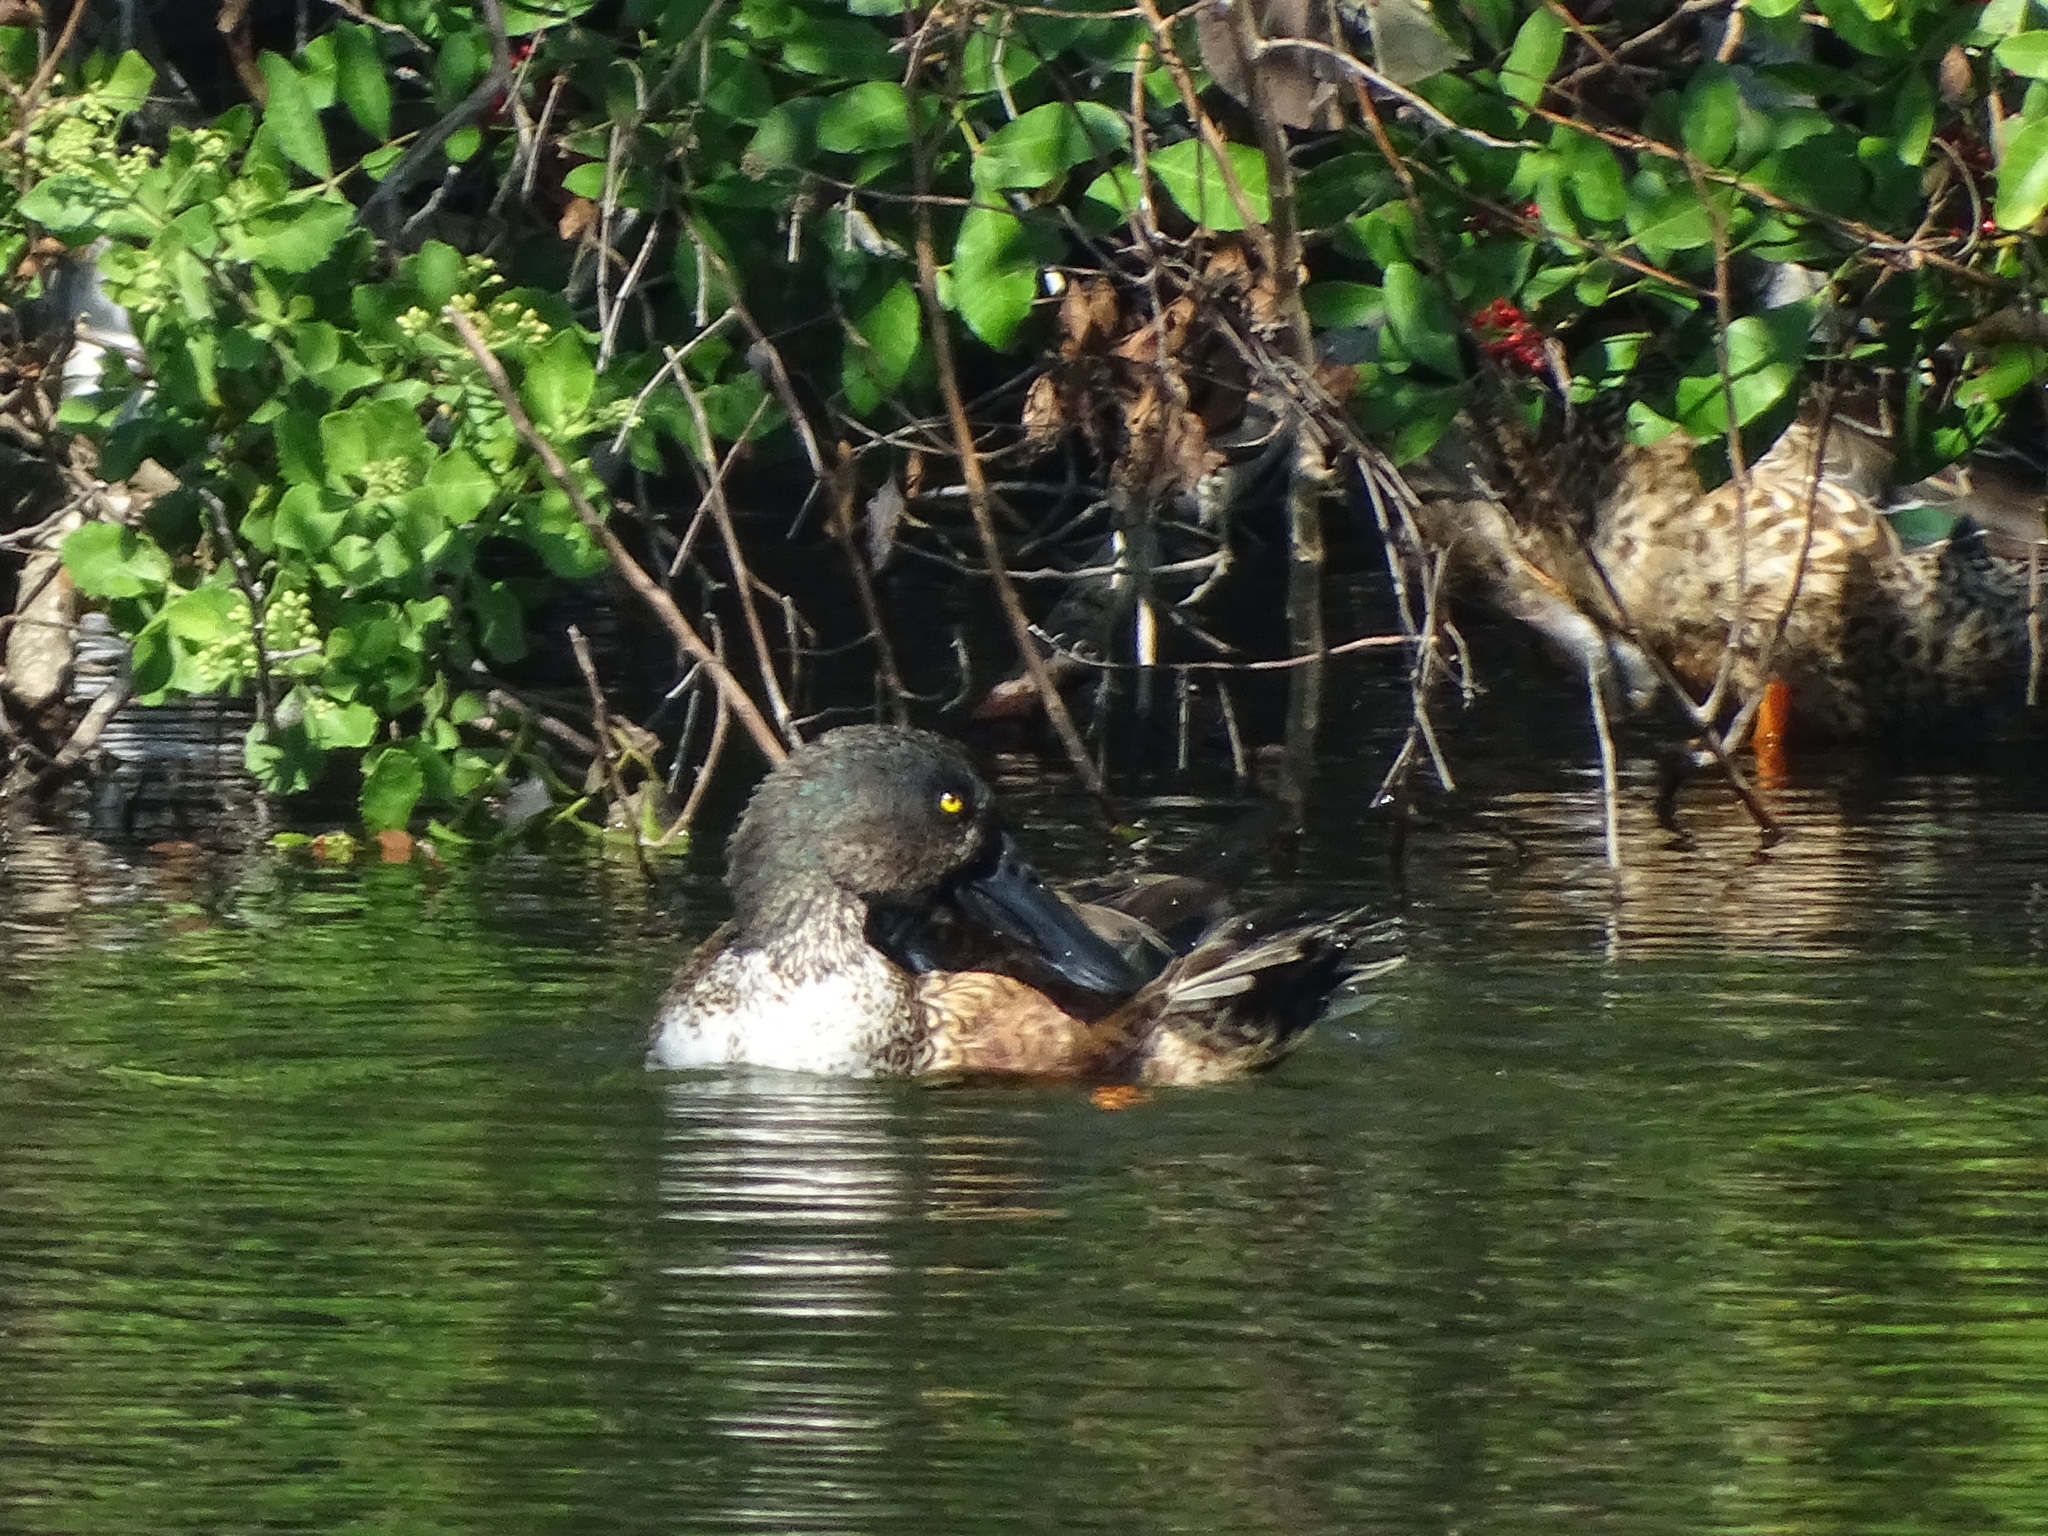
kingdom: Animalia
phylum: Chordata
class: Aves
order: Anseriformes
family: Anatidae
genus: Spatula
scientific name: Spatula clypeata
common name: Northern shoveler
